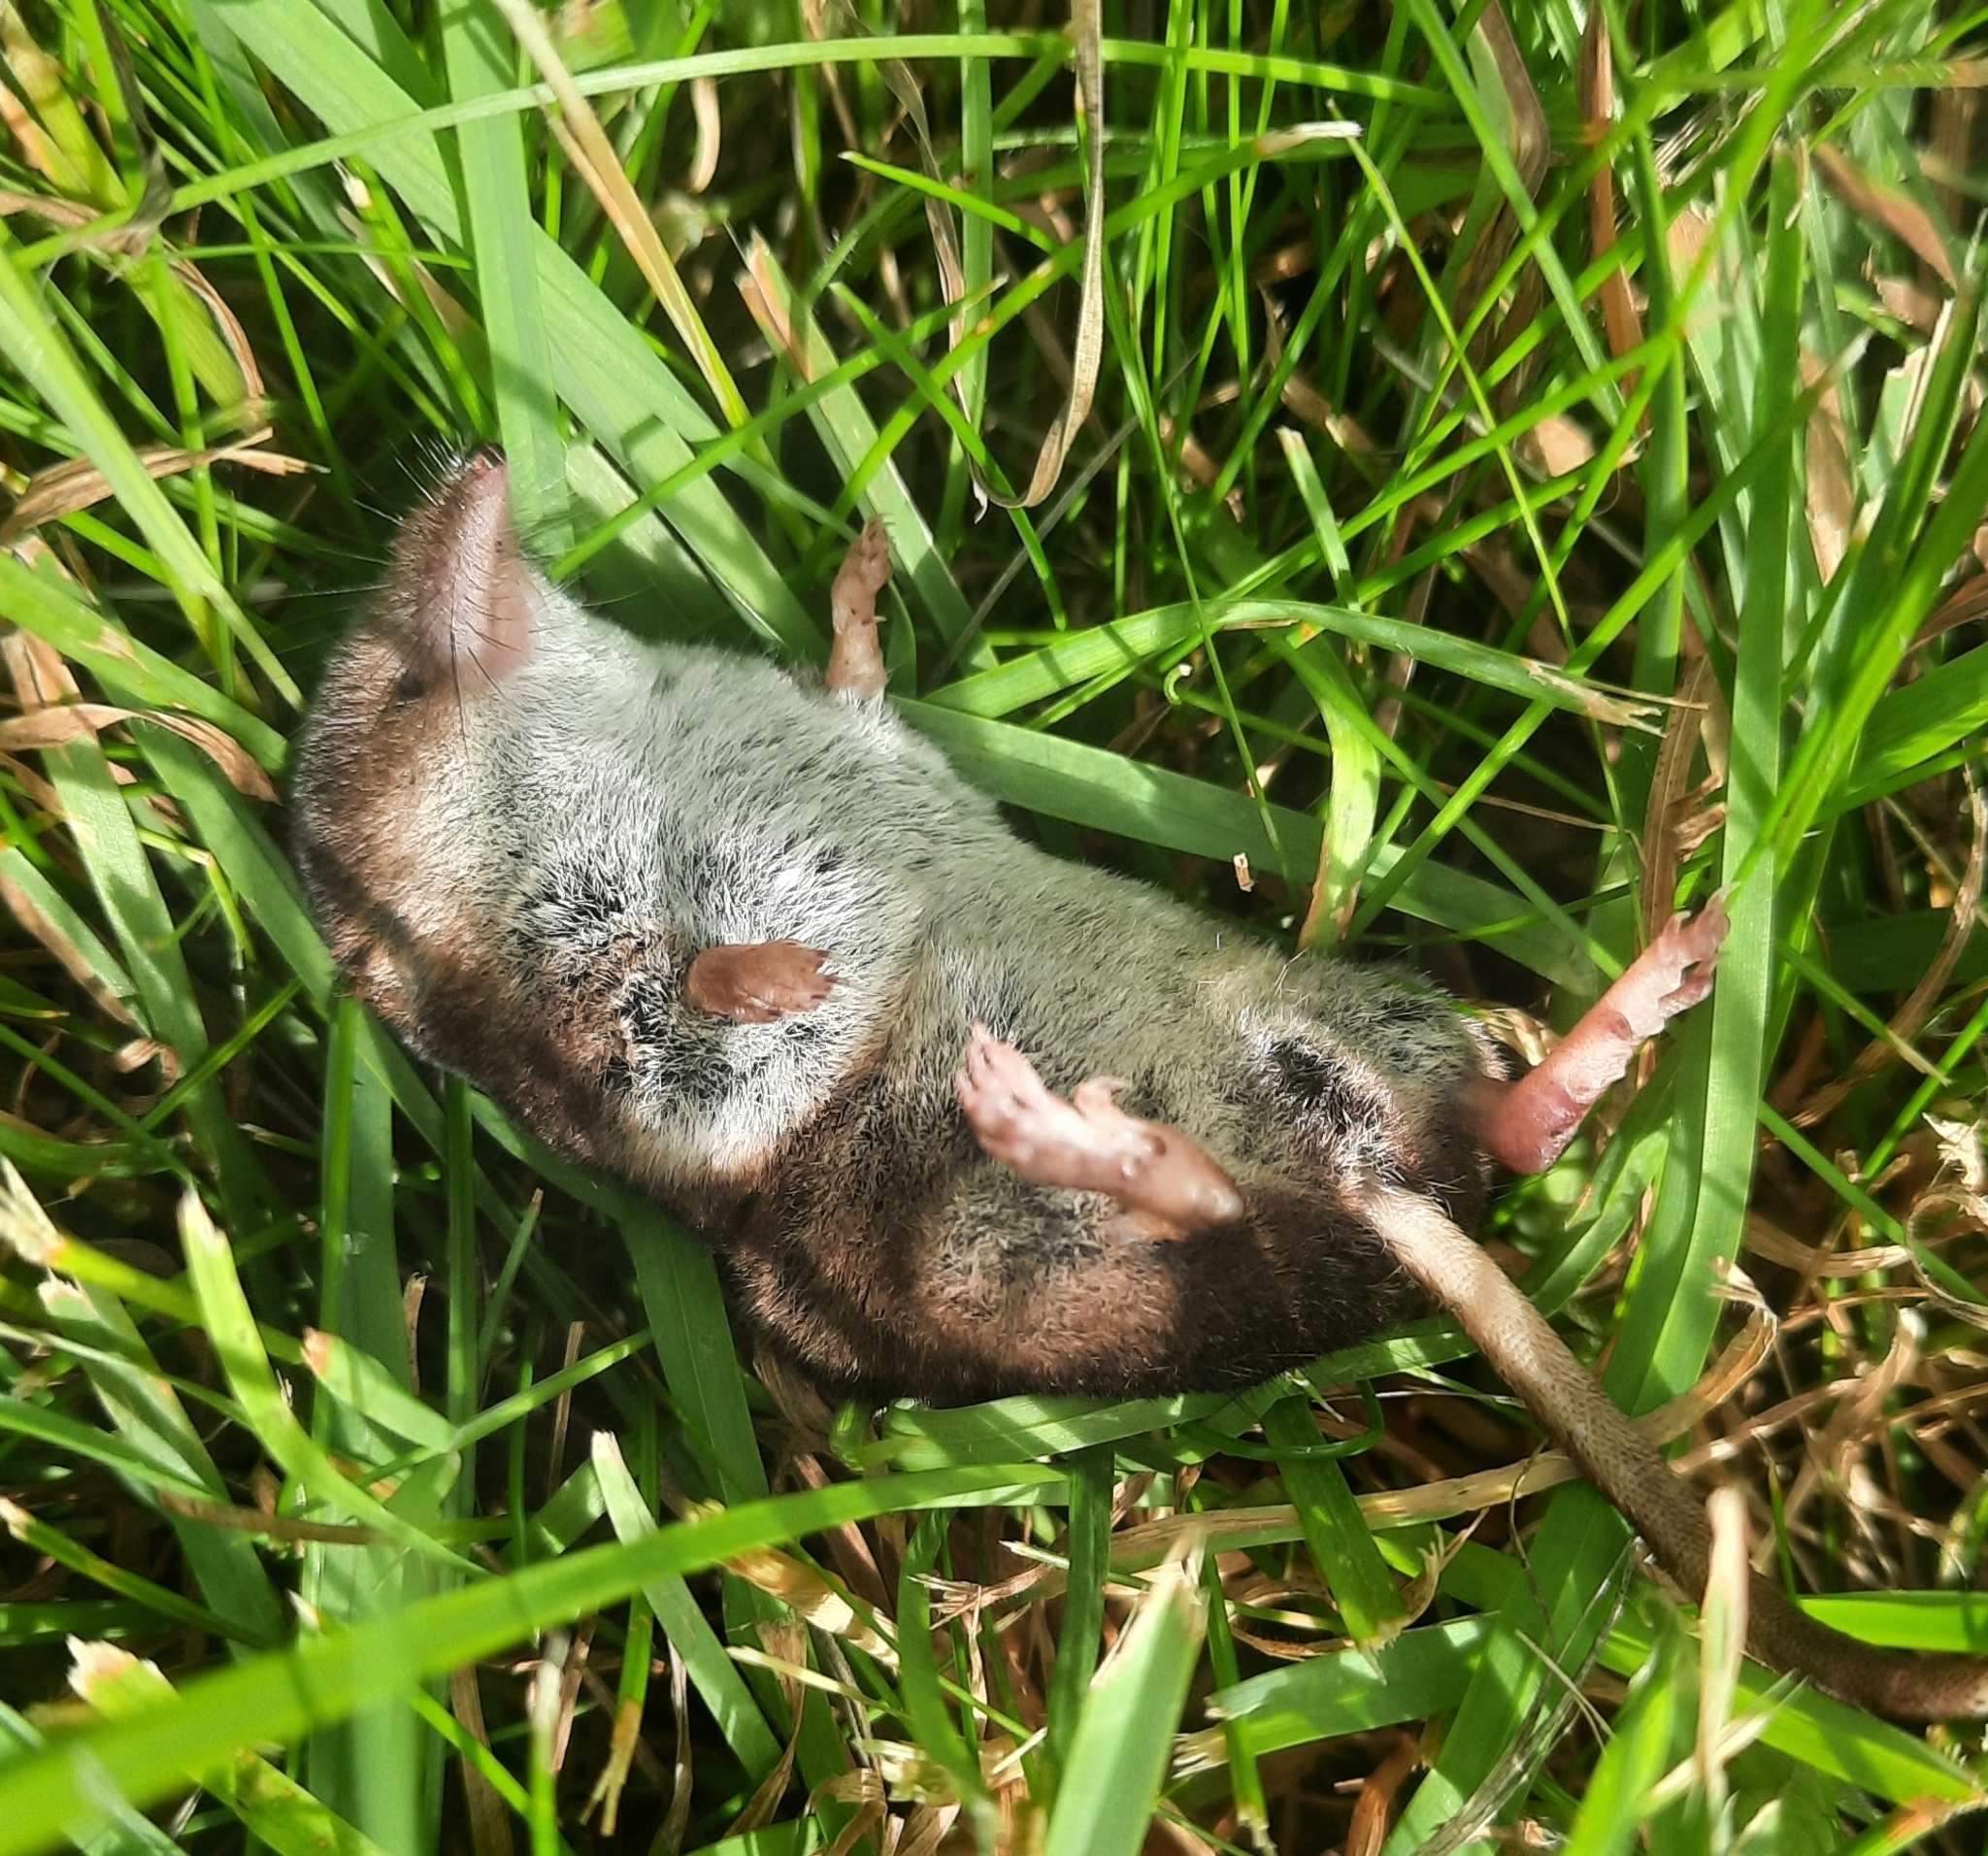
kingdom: Animalia
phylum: Chordata
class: Mammalia
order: Soricomorpha
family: Soricidae
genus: Sorex
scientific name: Sorex araneus
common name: Common shrew
